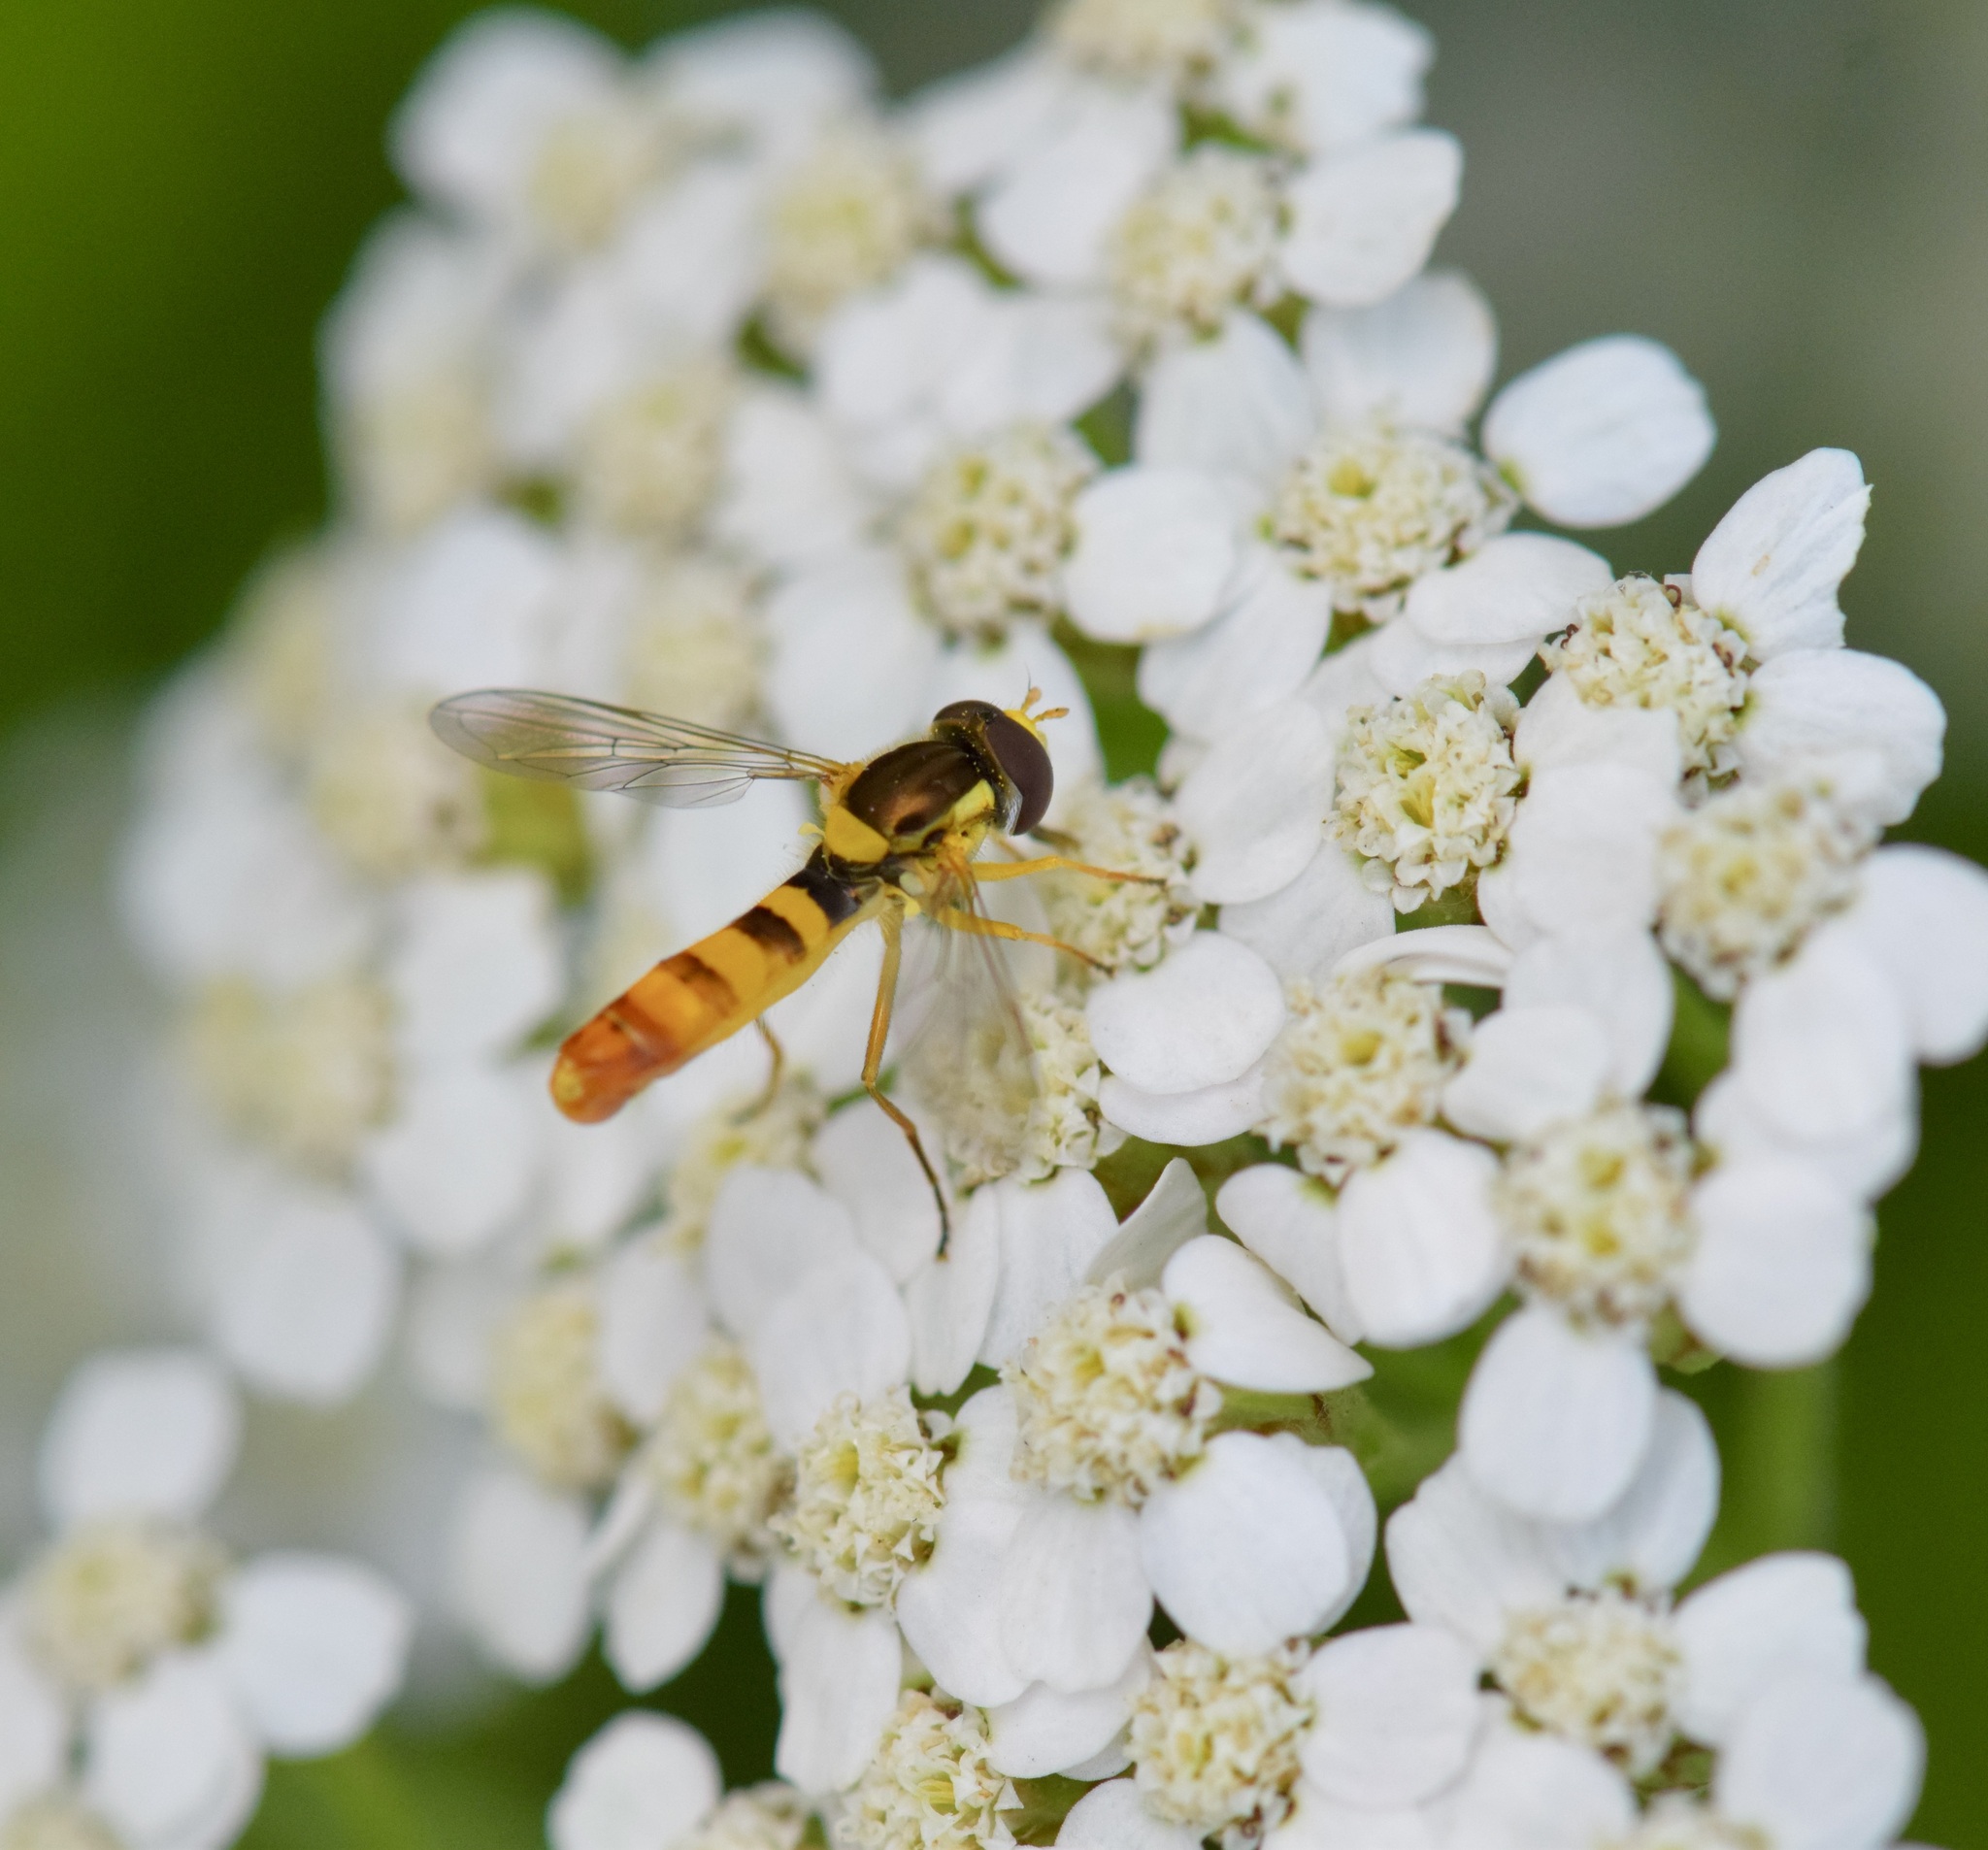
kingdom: Animalia
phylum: Arthropoda
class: Insecta
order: Diptera
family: Syrphidae
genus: Sphaerophoria
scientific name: Sphaerophoria philantha
